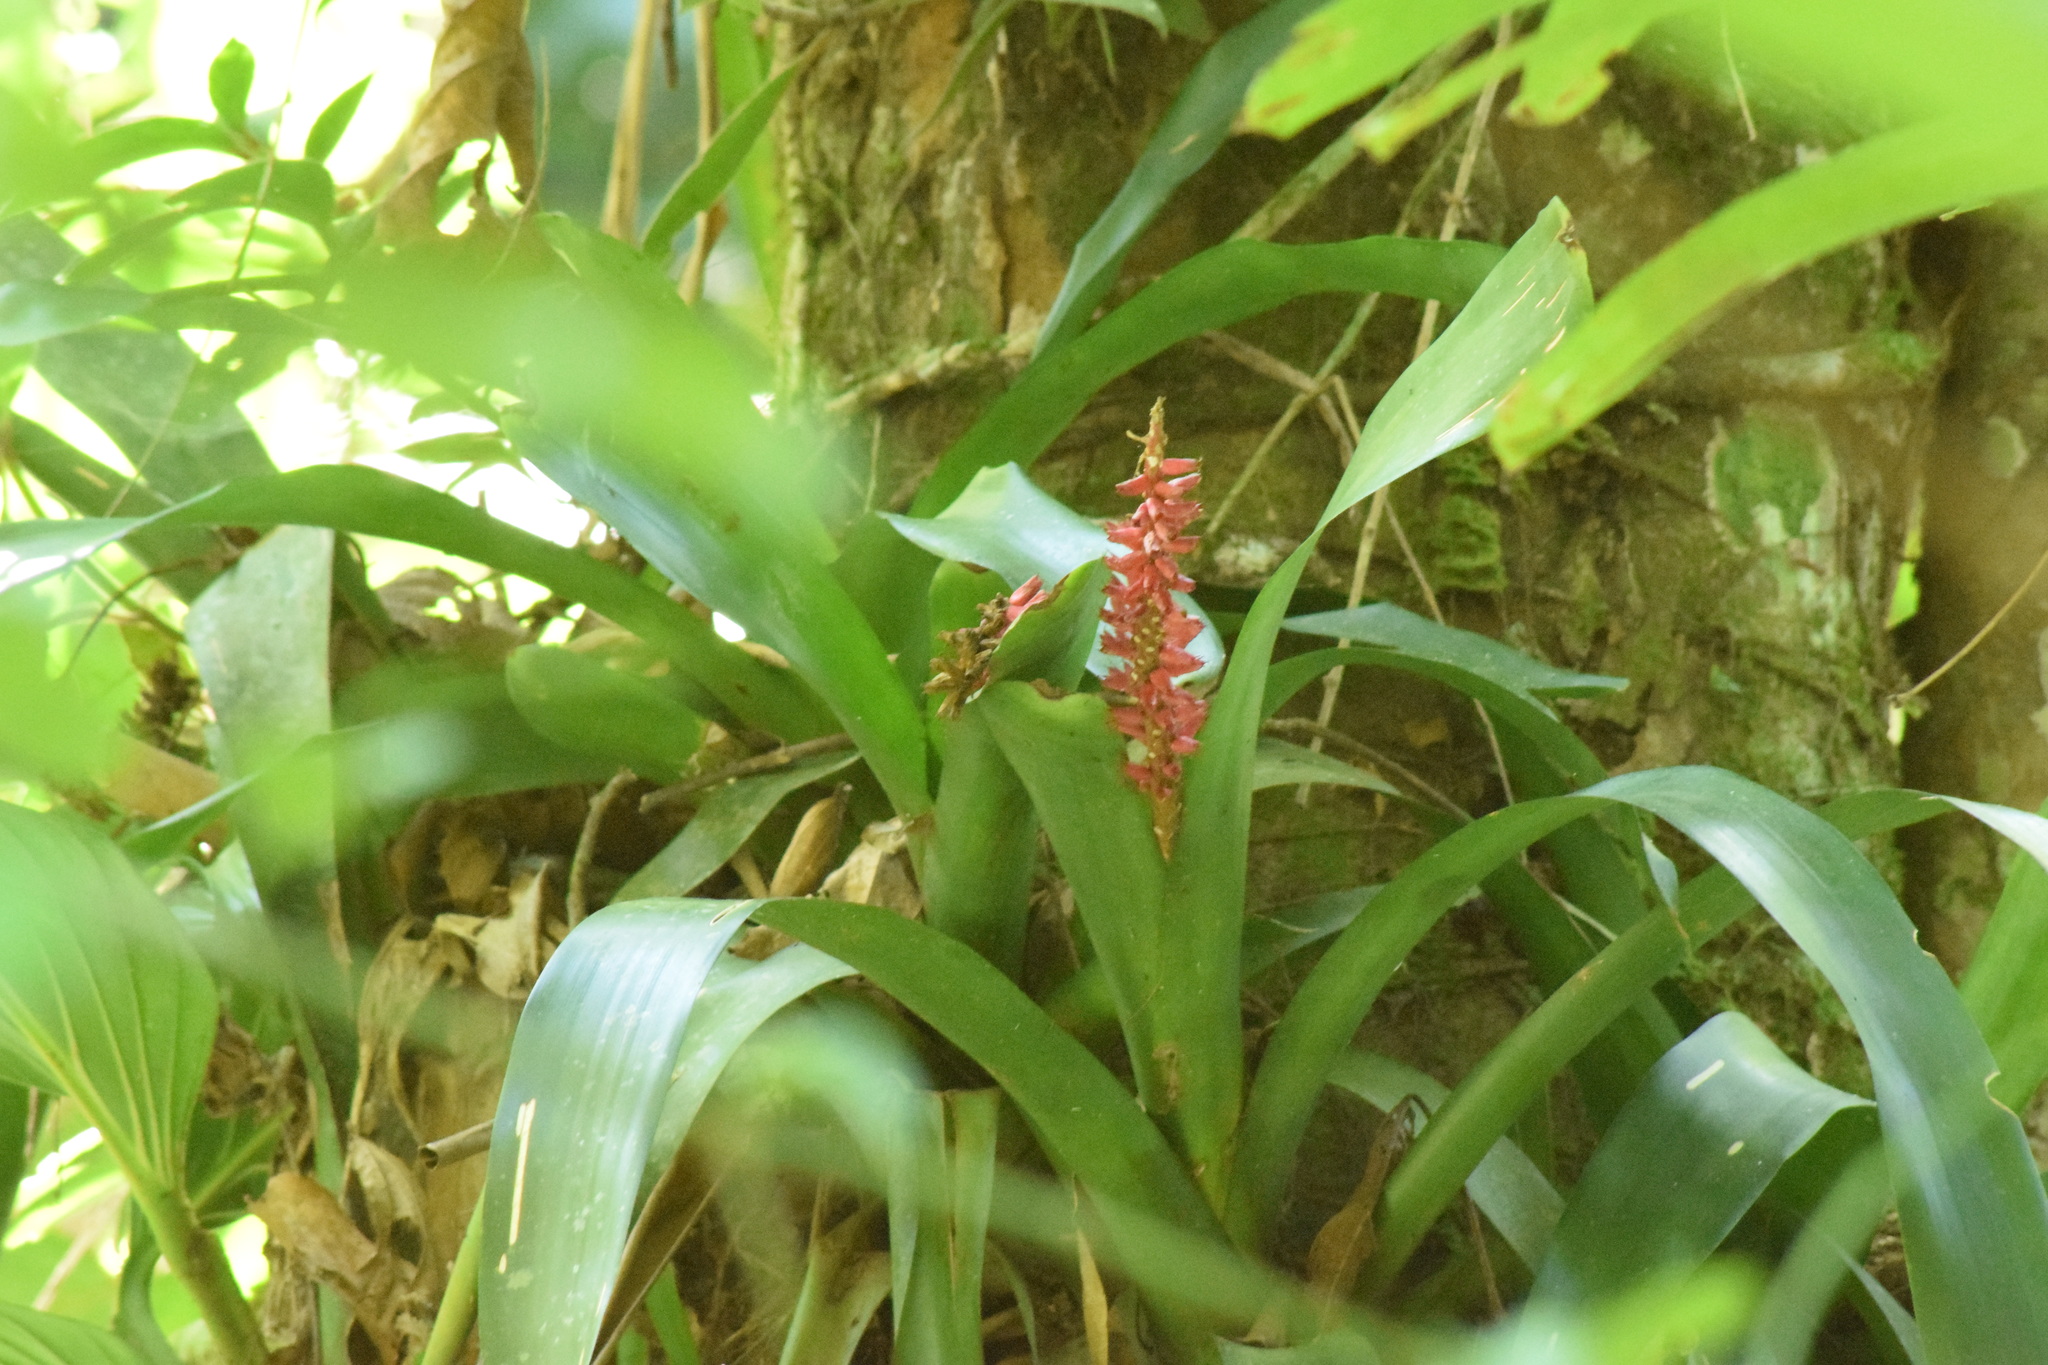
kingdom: Plantae
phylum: Tracheophyta
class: Liliopsida
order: Poales
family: Bromeliaceae
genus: Aechmea
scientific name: Aechmea cylindrata
